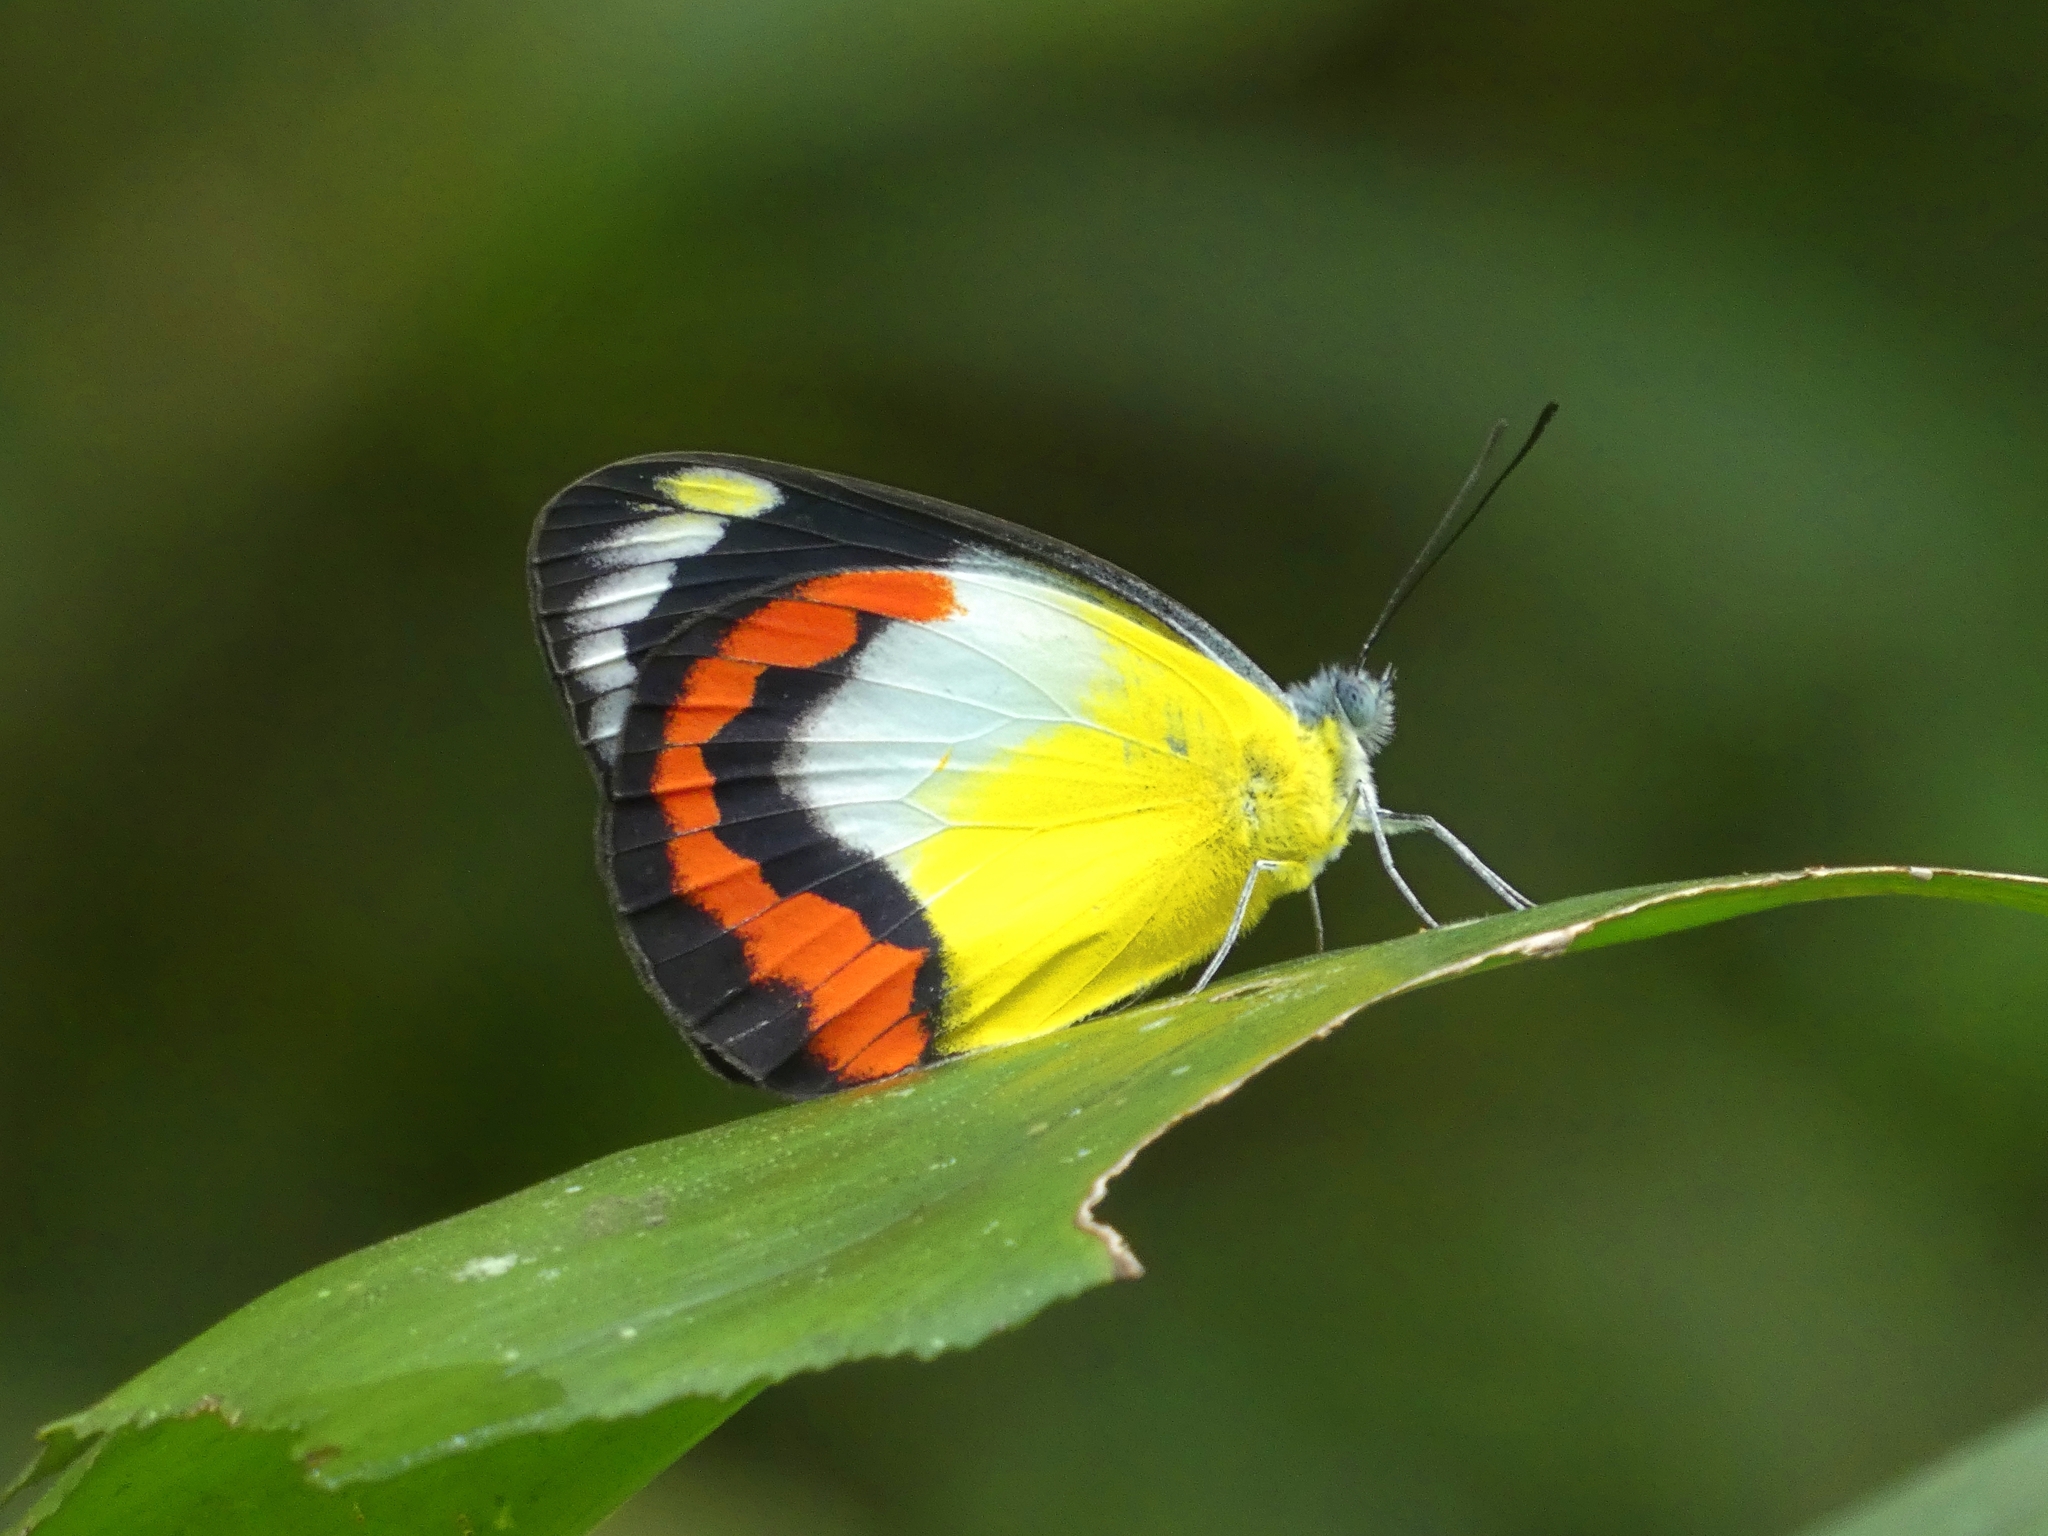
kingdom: Animalia
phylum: Arthropoda
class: Insecta
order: Lepidoptera
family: Pieridae
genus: Delias
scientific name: Delias mysis
